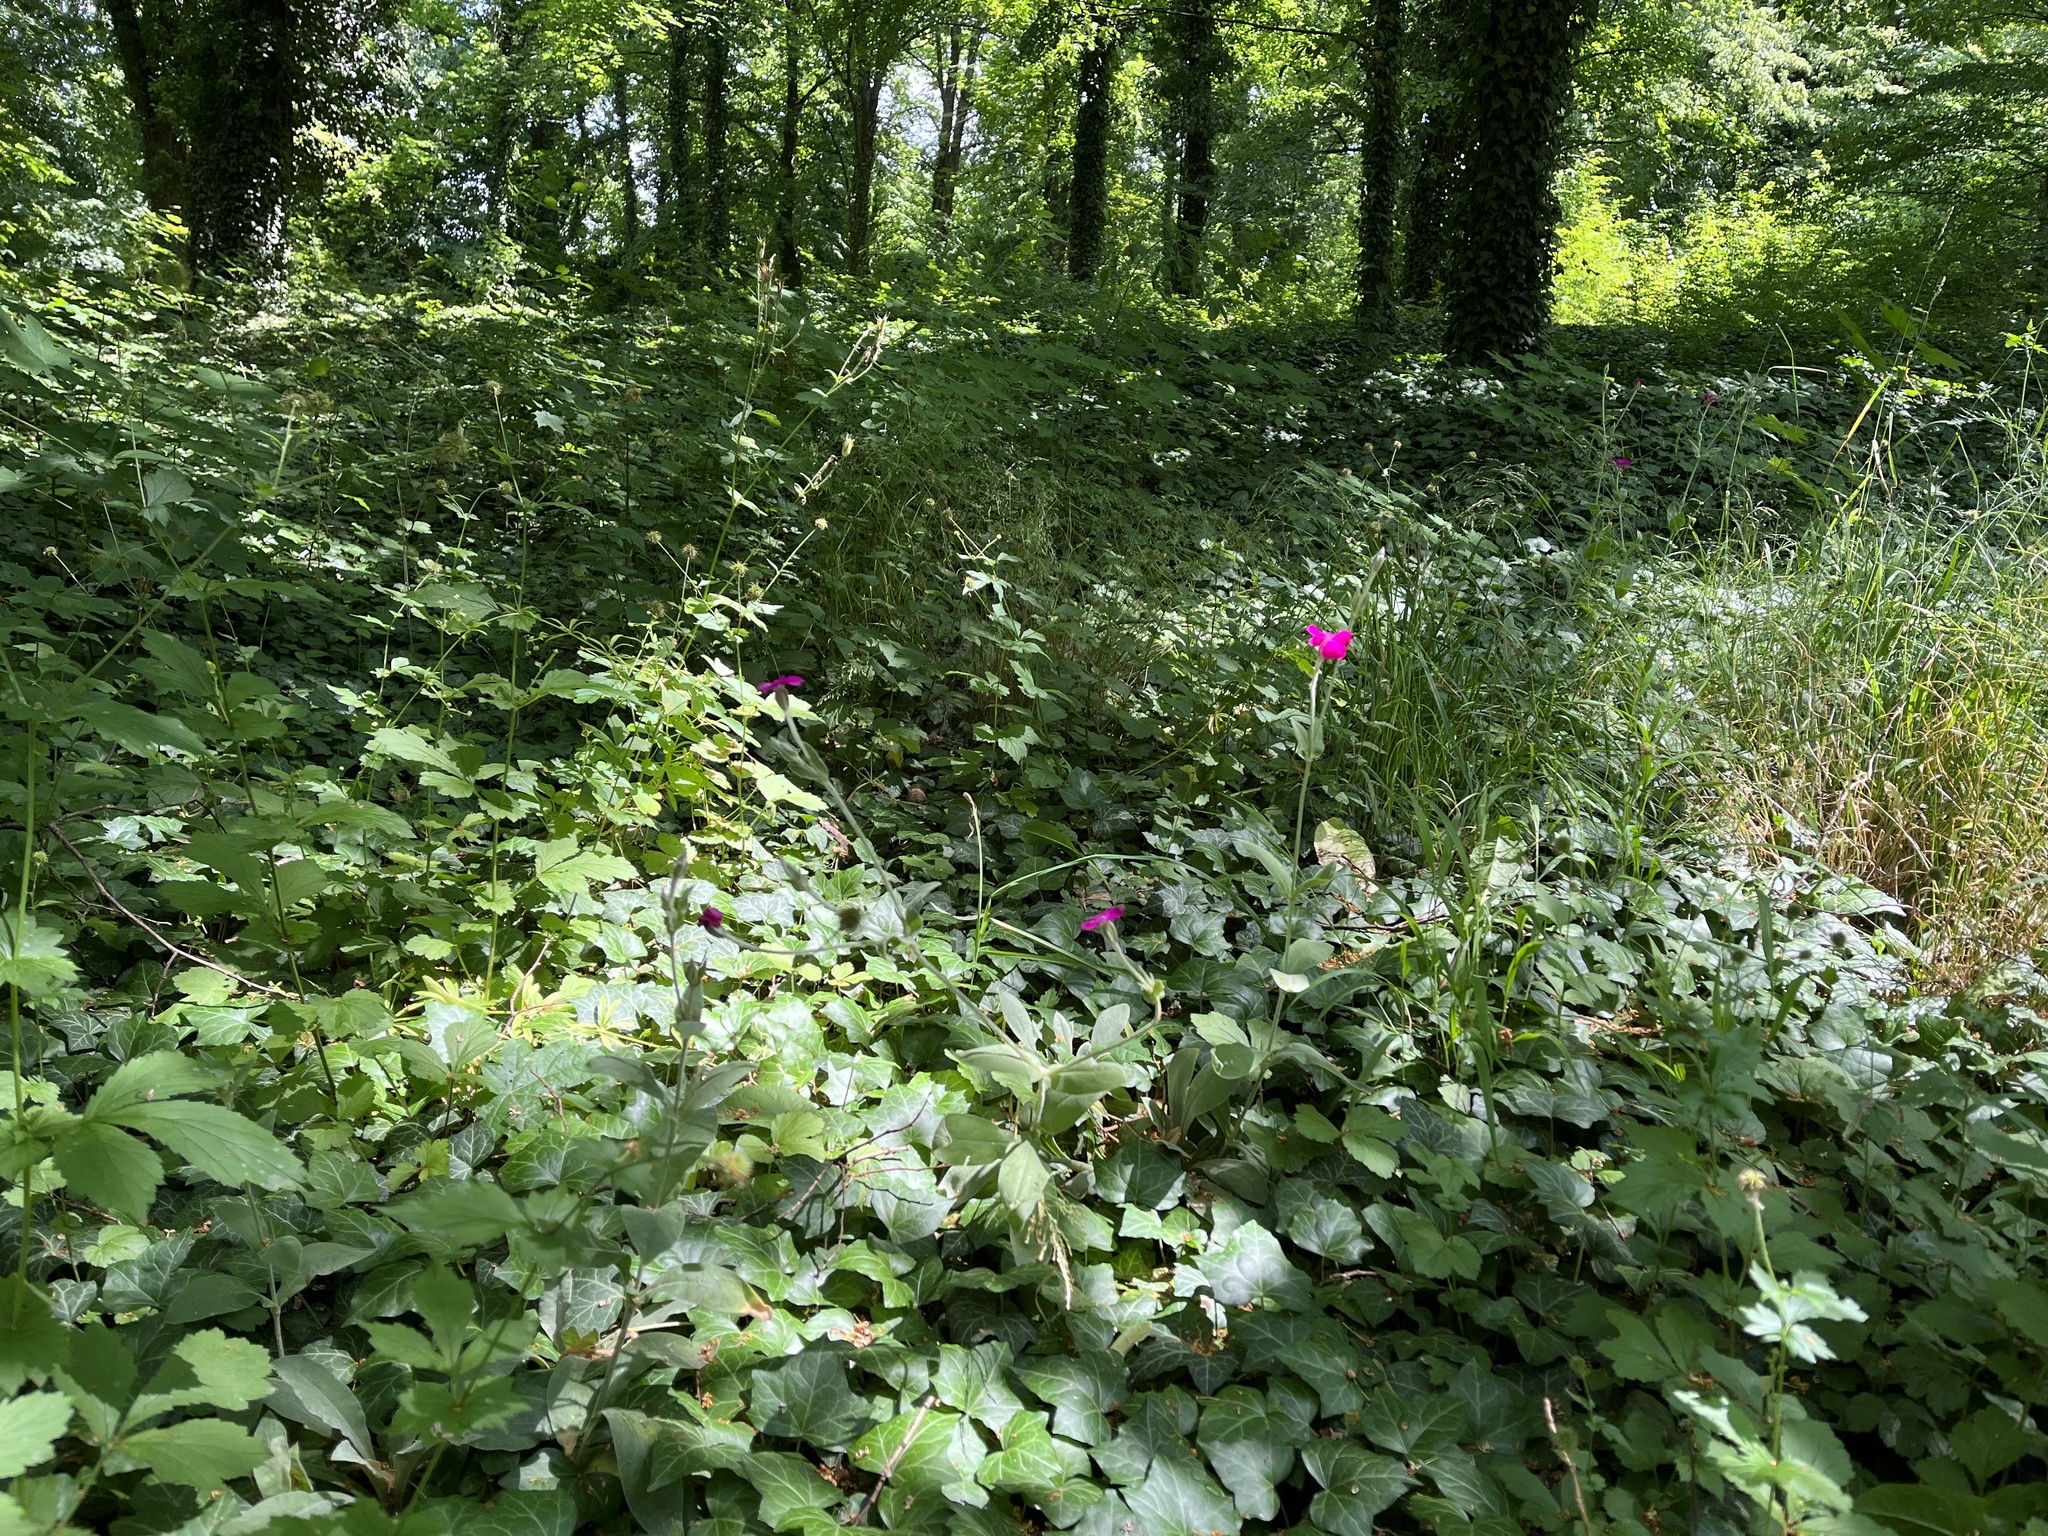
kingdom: Plantae
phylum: Tracheophyta
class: Magnoliopsida
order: Caryophyllales
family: Caryophyllaceae
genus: Silene
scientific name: Silene coronaria
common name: Rose campion
